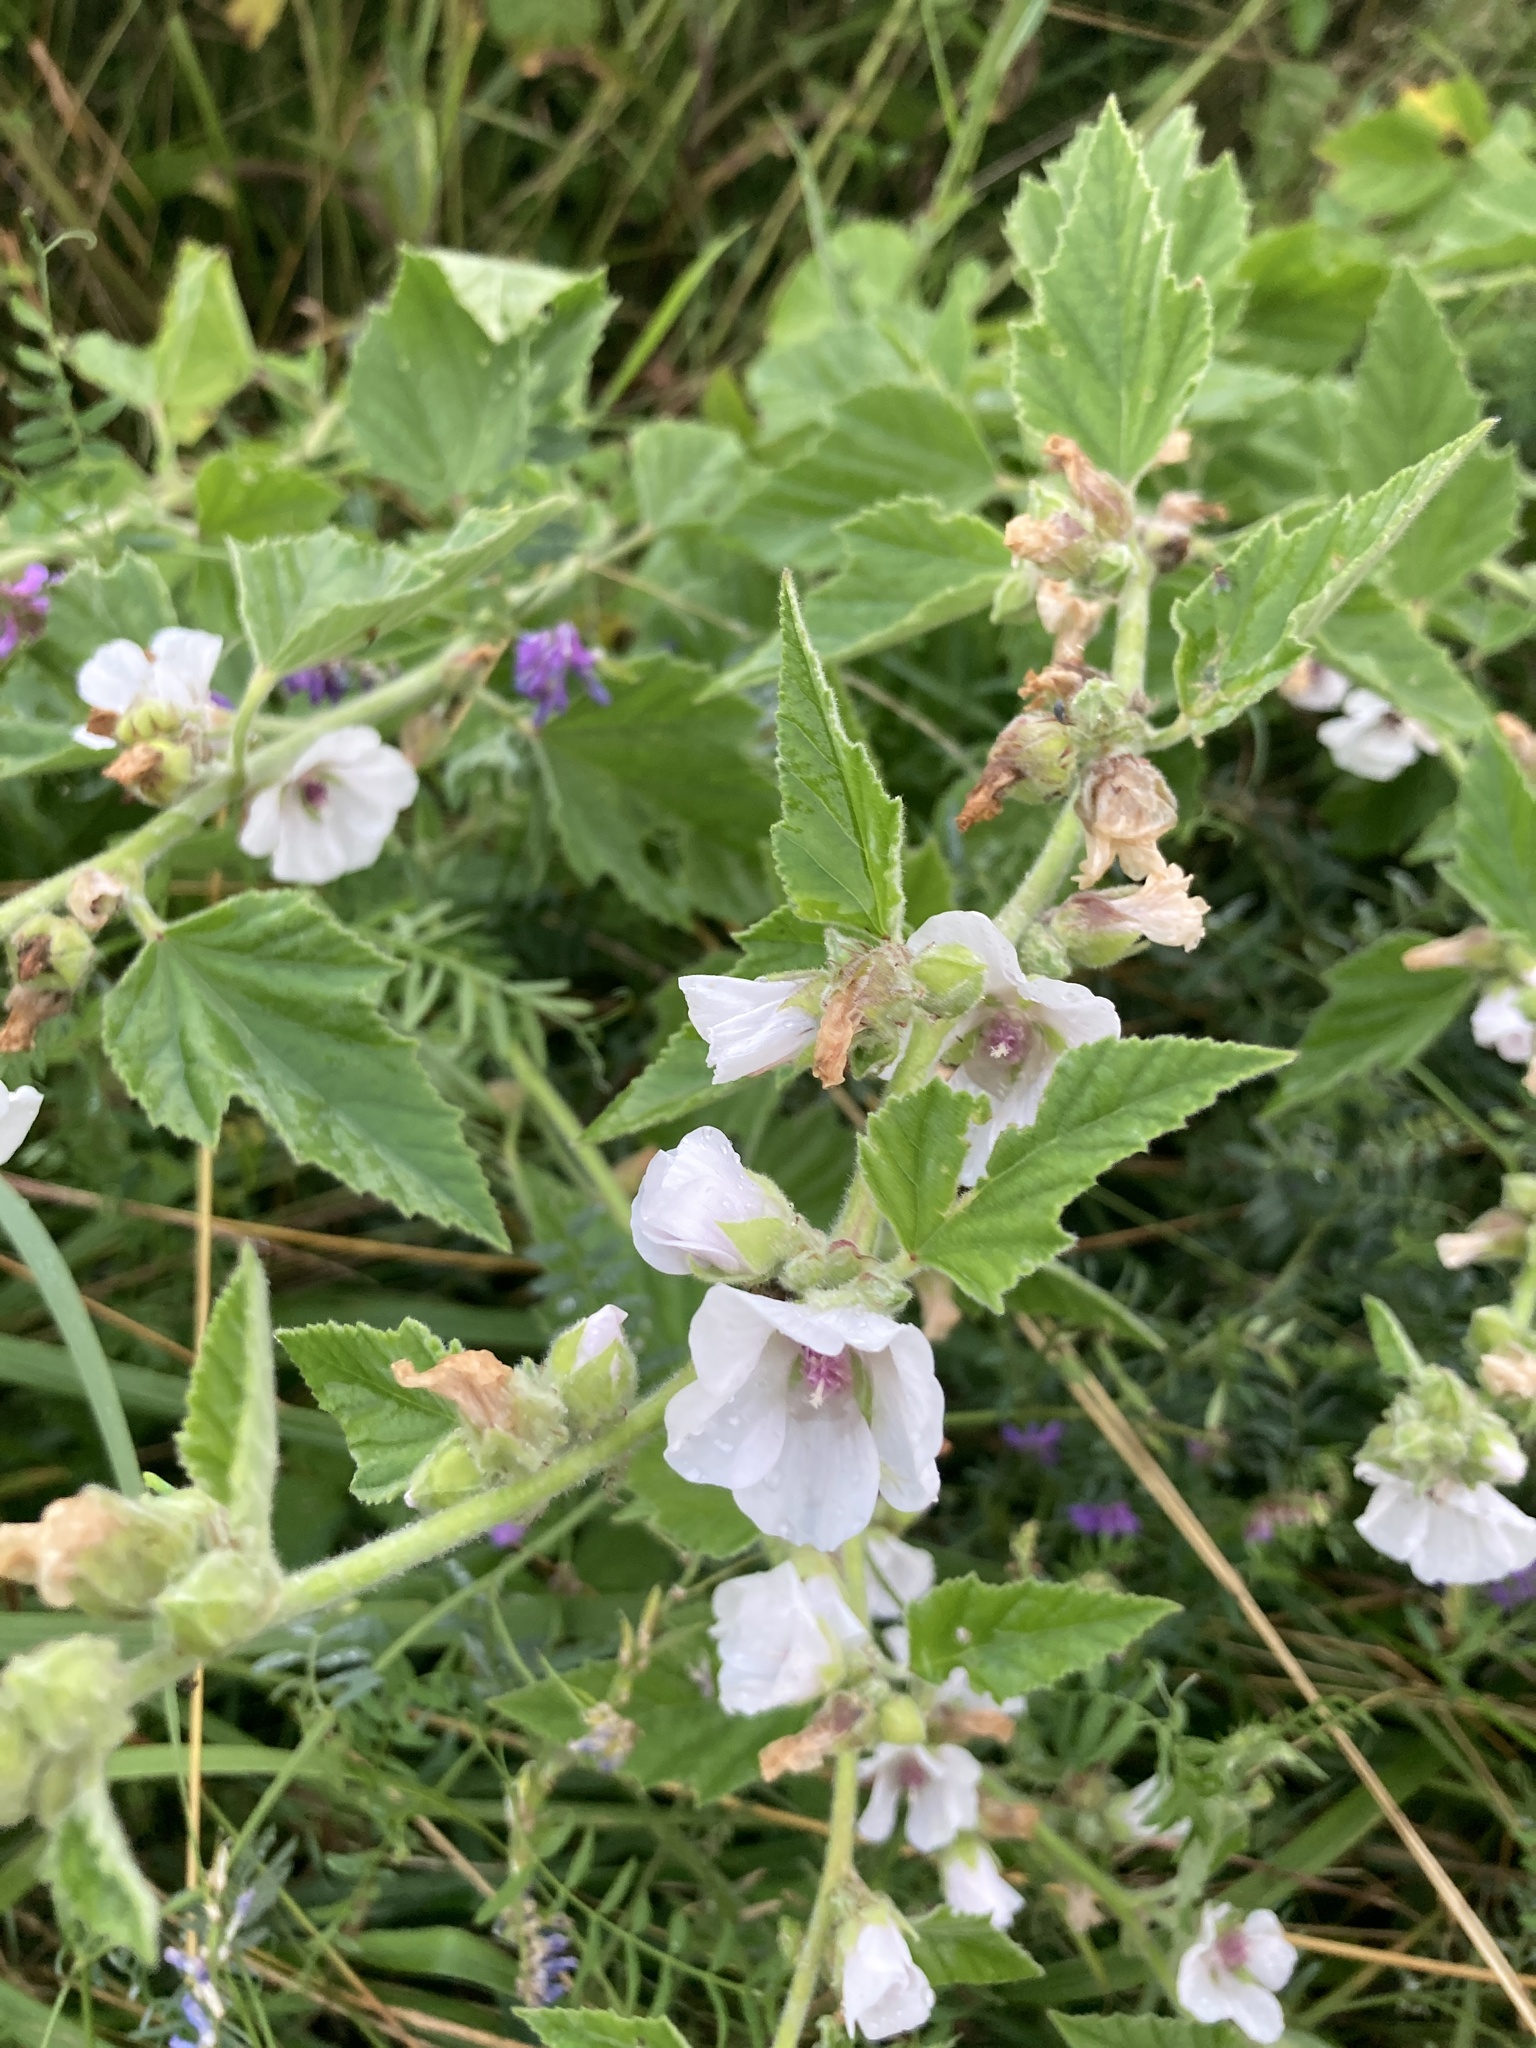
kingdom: Plantae
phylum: Tracheophyta
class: Magnoliopsida
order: Malvales
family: Malvaceae
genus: Althaea
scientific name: Althaea officinalis
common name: Marsh-mallow
